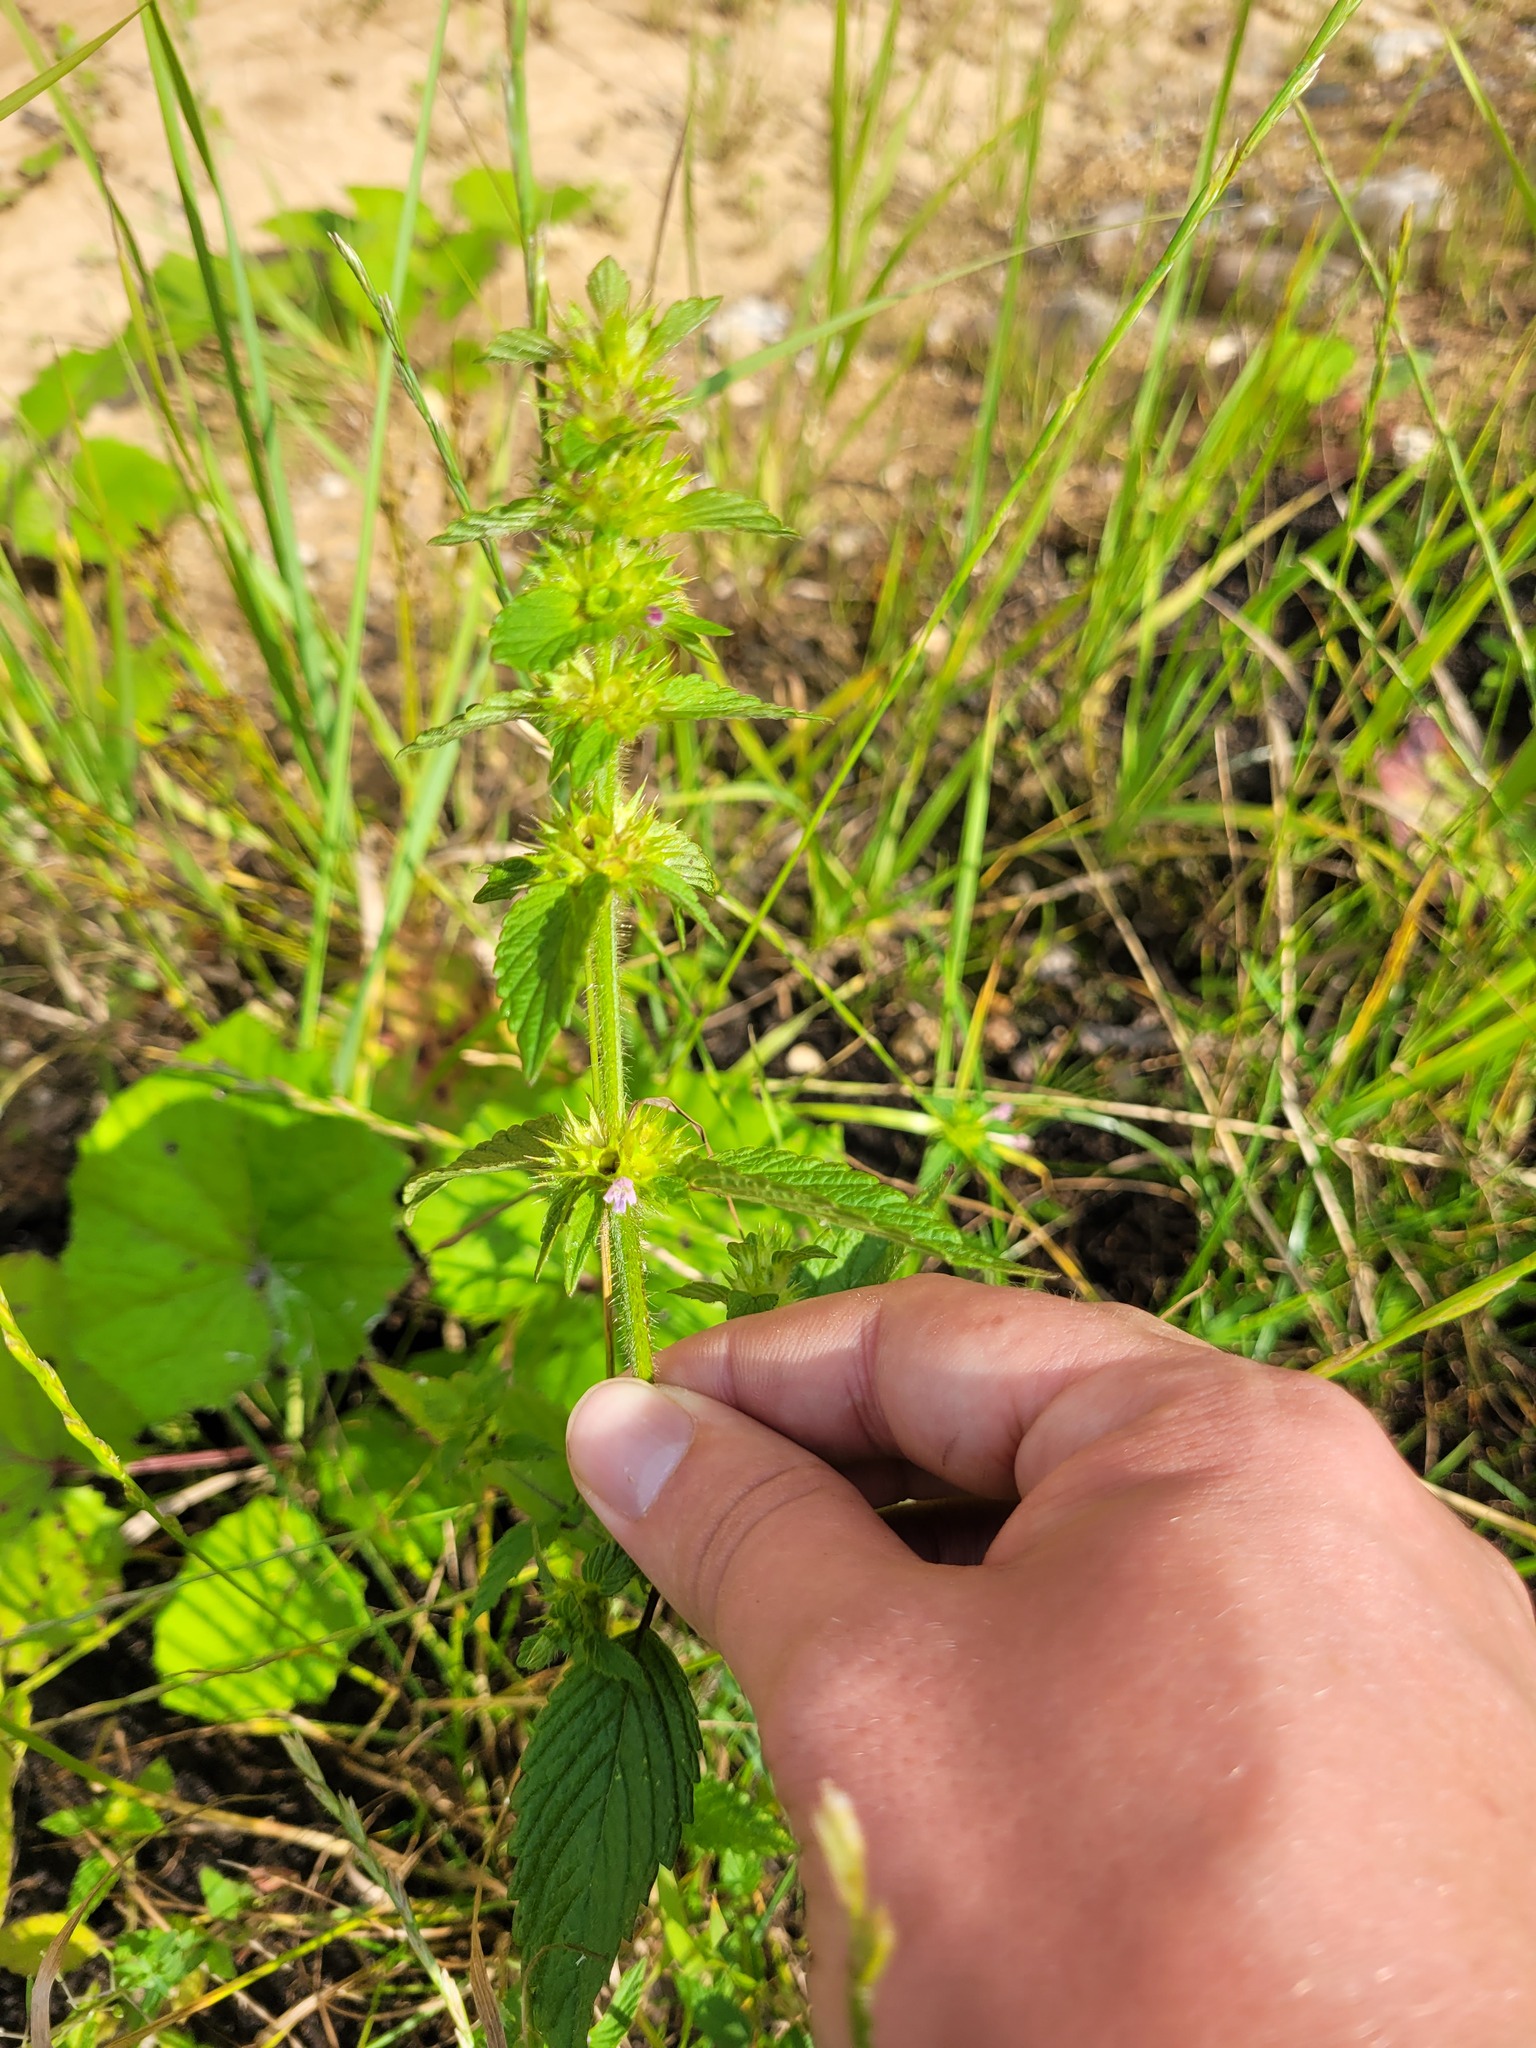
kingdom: Plantae
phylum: Tracheophyta
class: Magnoliopsida
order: Lamiales
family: Lamiaceae
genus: Galeopsis
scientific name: Galeopsis bifida
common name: Bifid hemp-nettle
